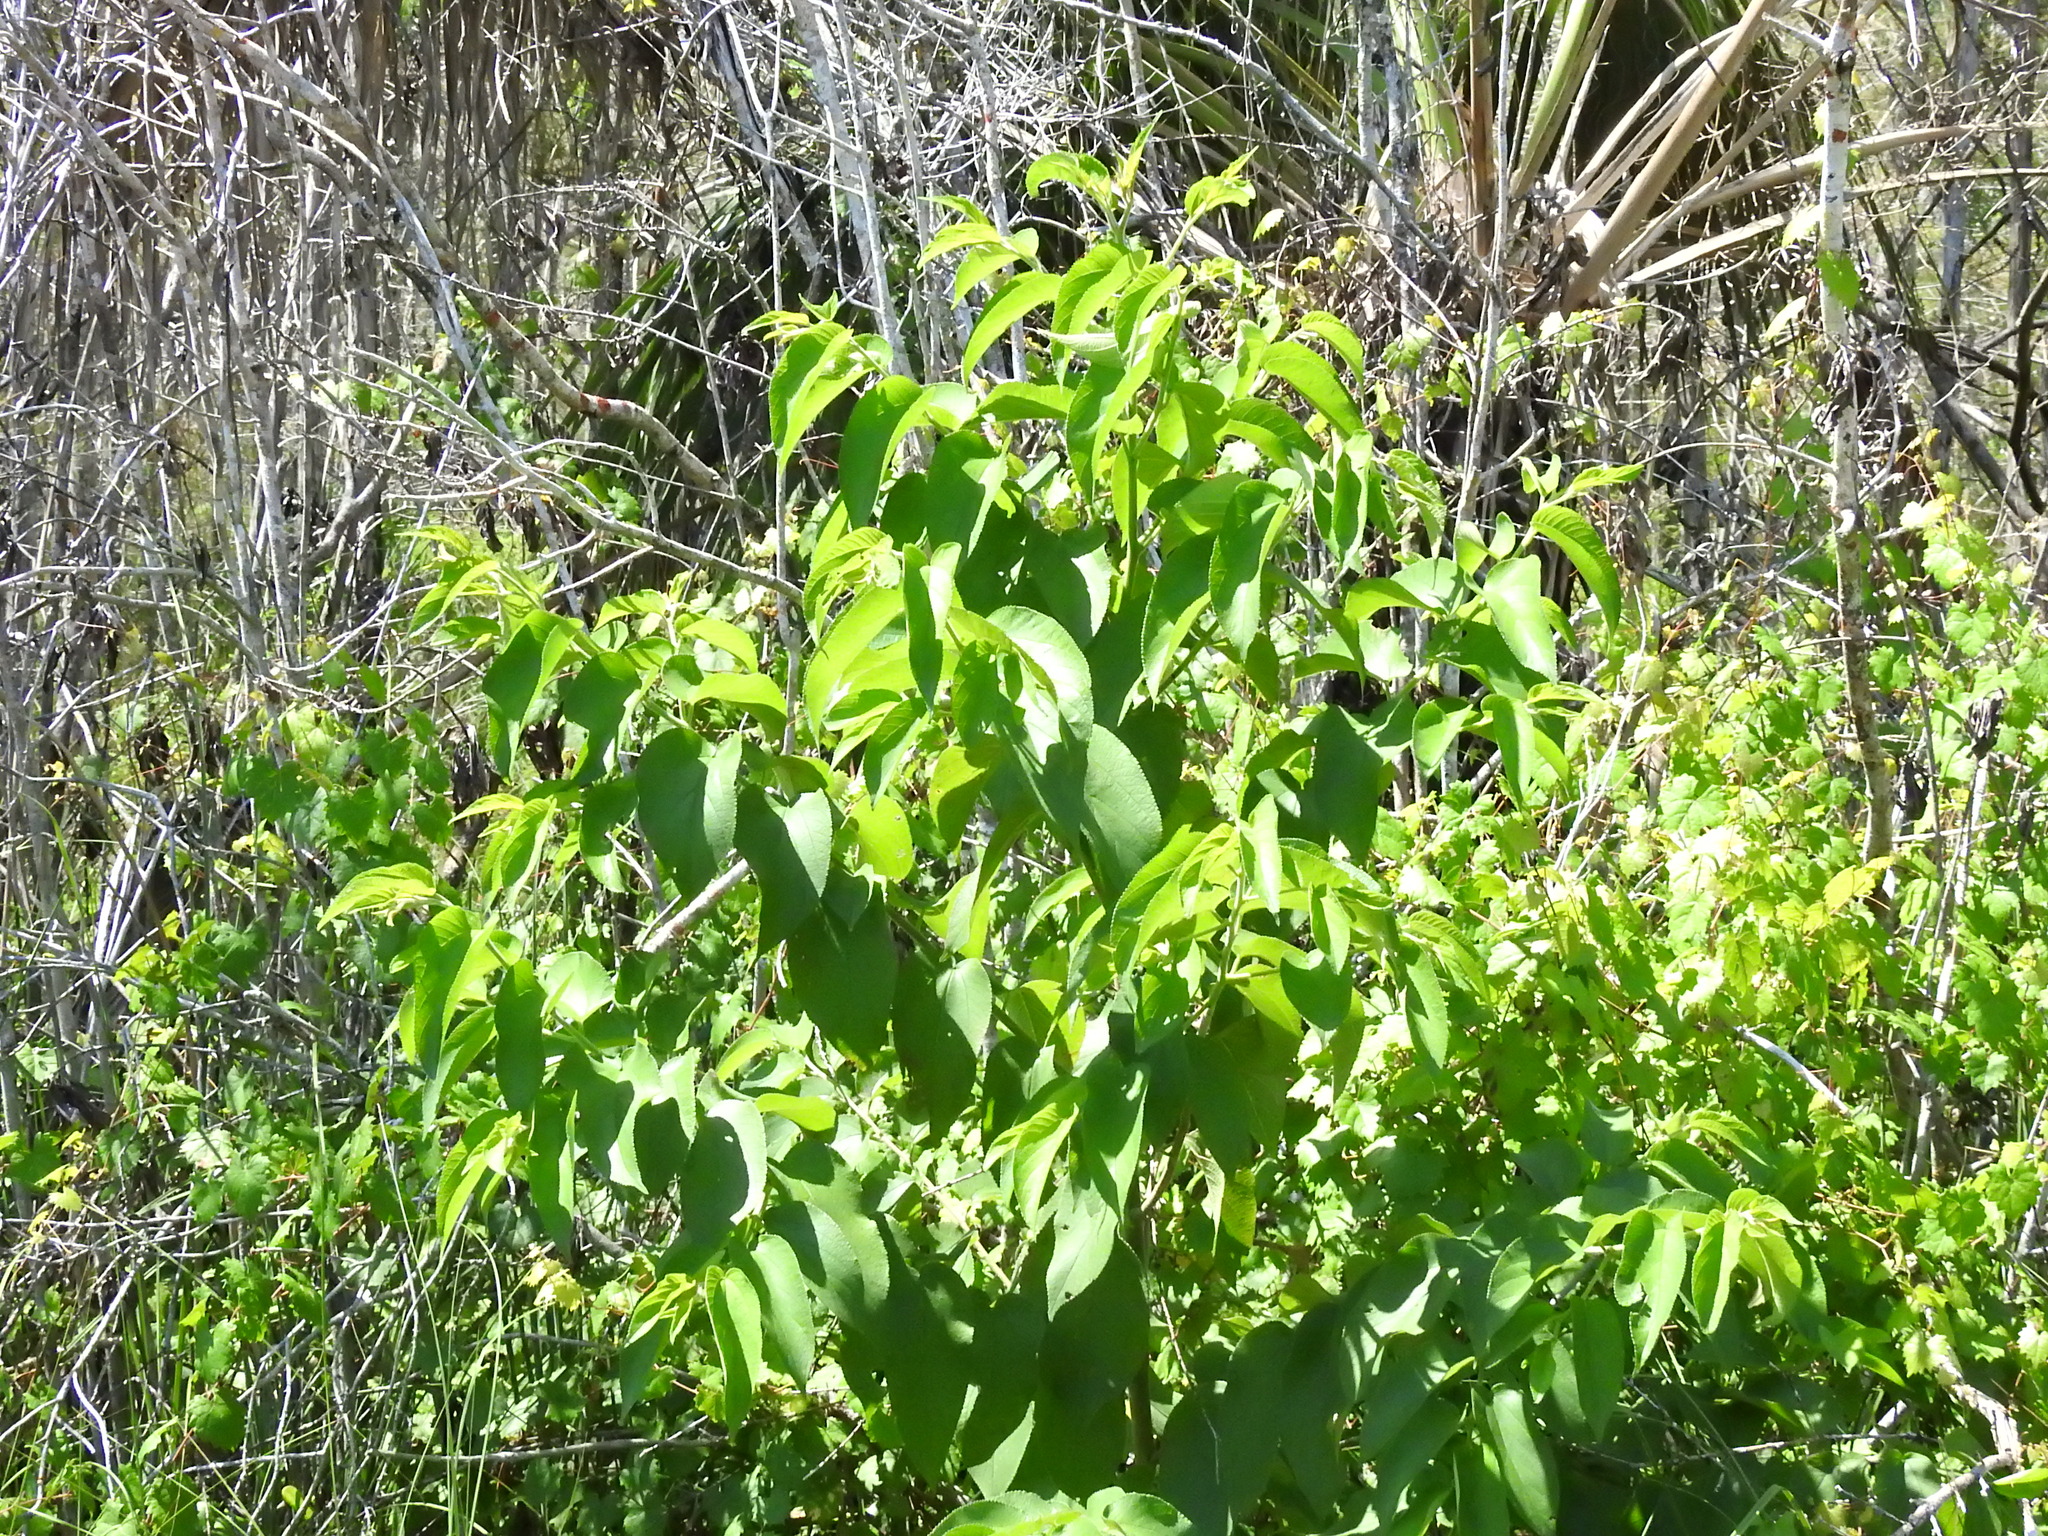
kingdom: Plantae
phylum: Tracheophyta
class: Magnoliopsida
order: Rosales
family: Cannabaceae
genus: Trema
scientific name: Trema micranthum
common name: Jamaican nettletree
